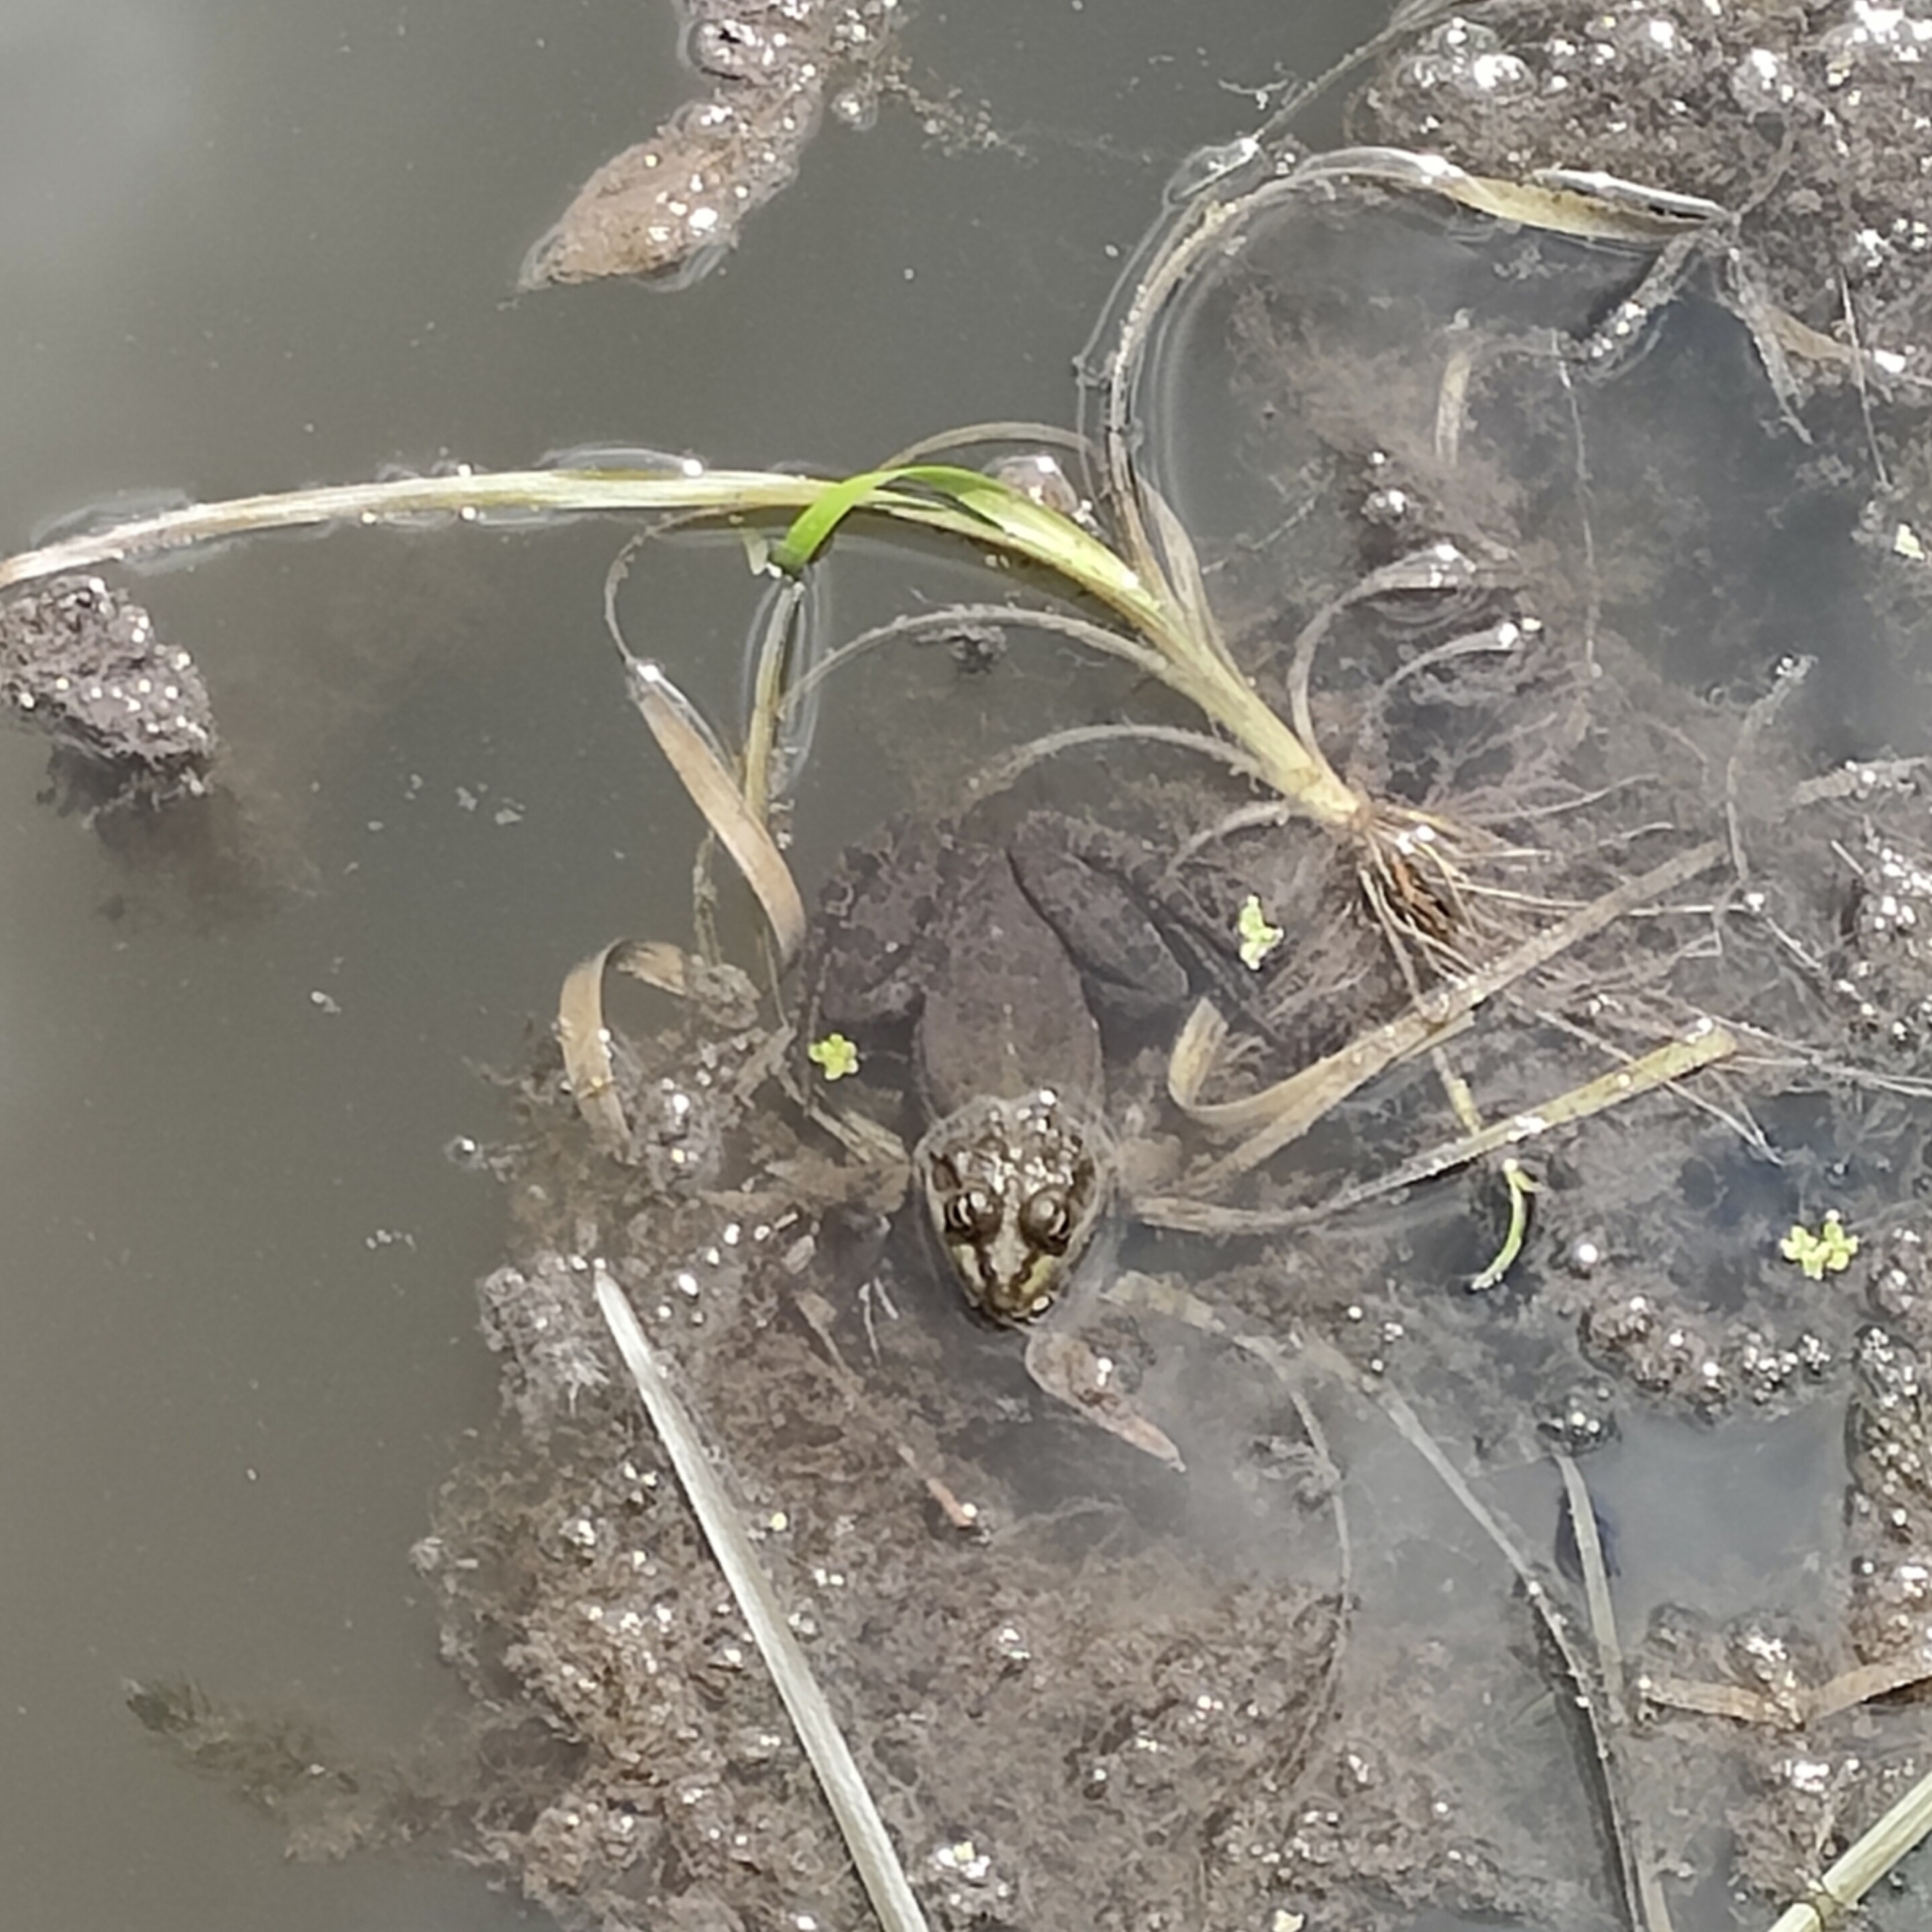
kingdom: Animalia
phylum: Chordata
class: Amphibia
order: Anura
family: Ranidae
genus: Pelophylax
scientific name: Pelophylax ridibundus
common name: Marsh frog
